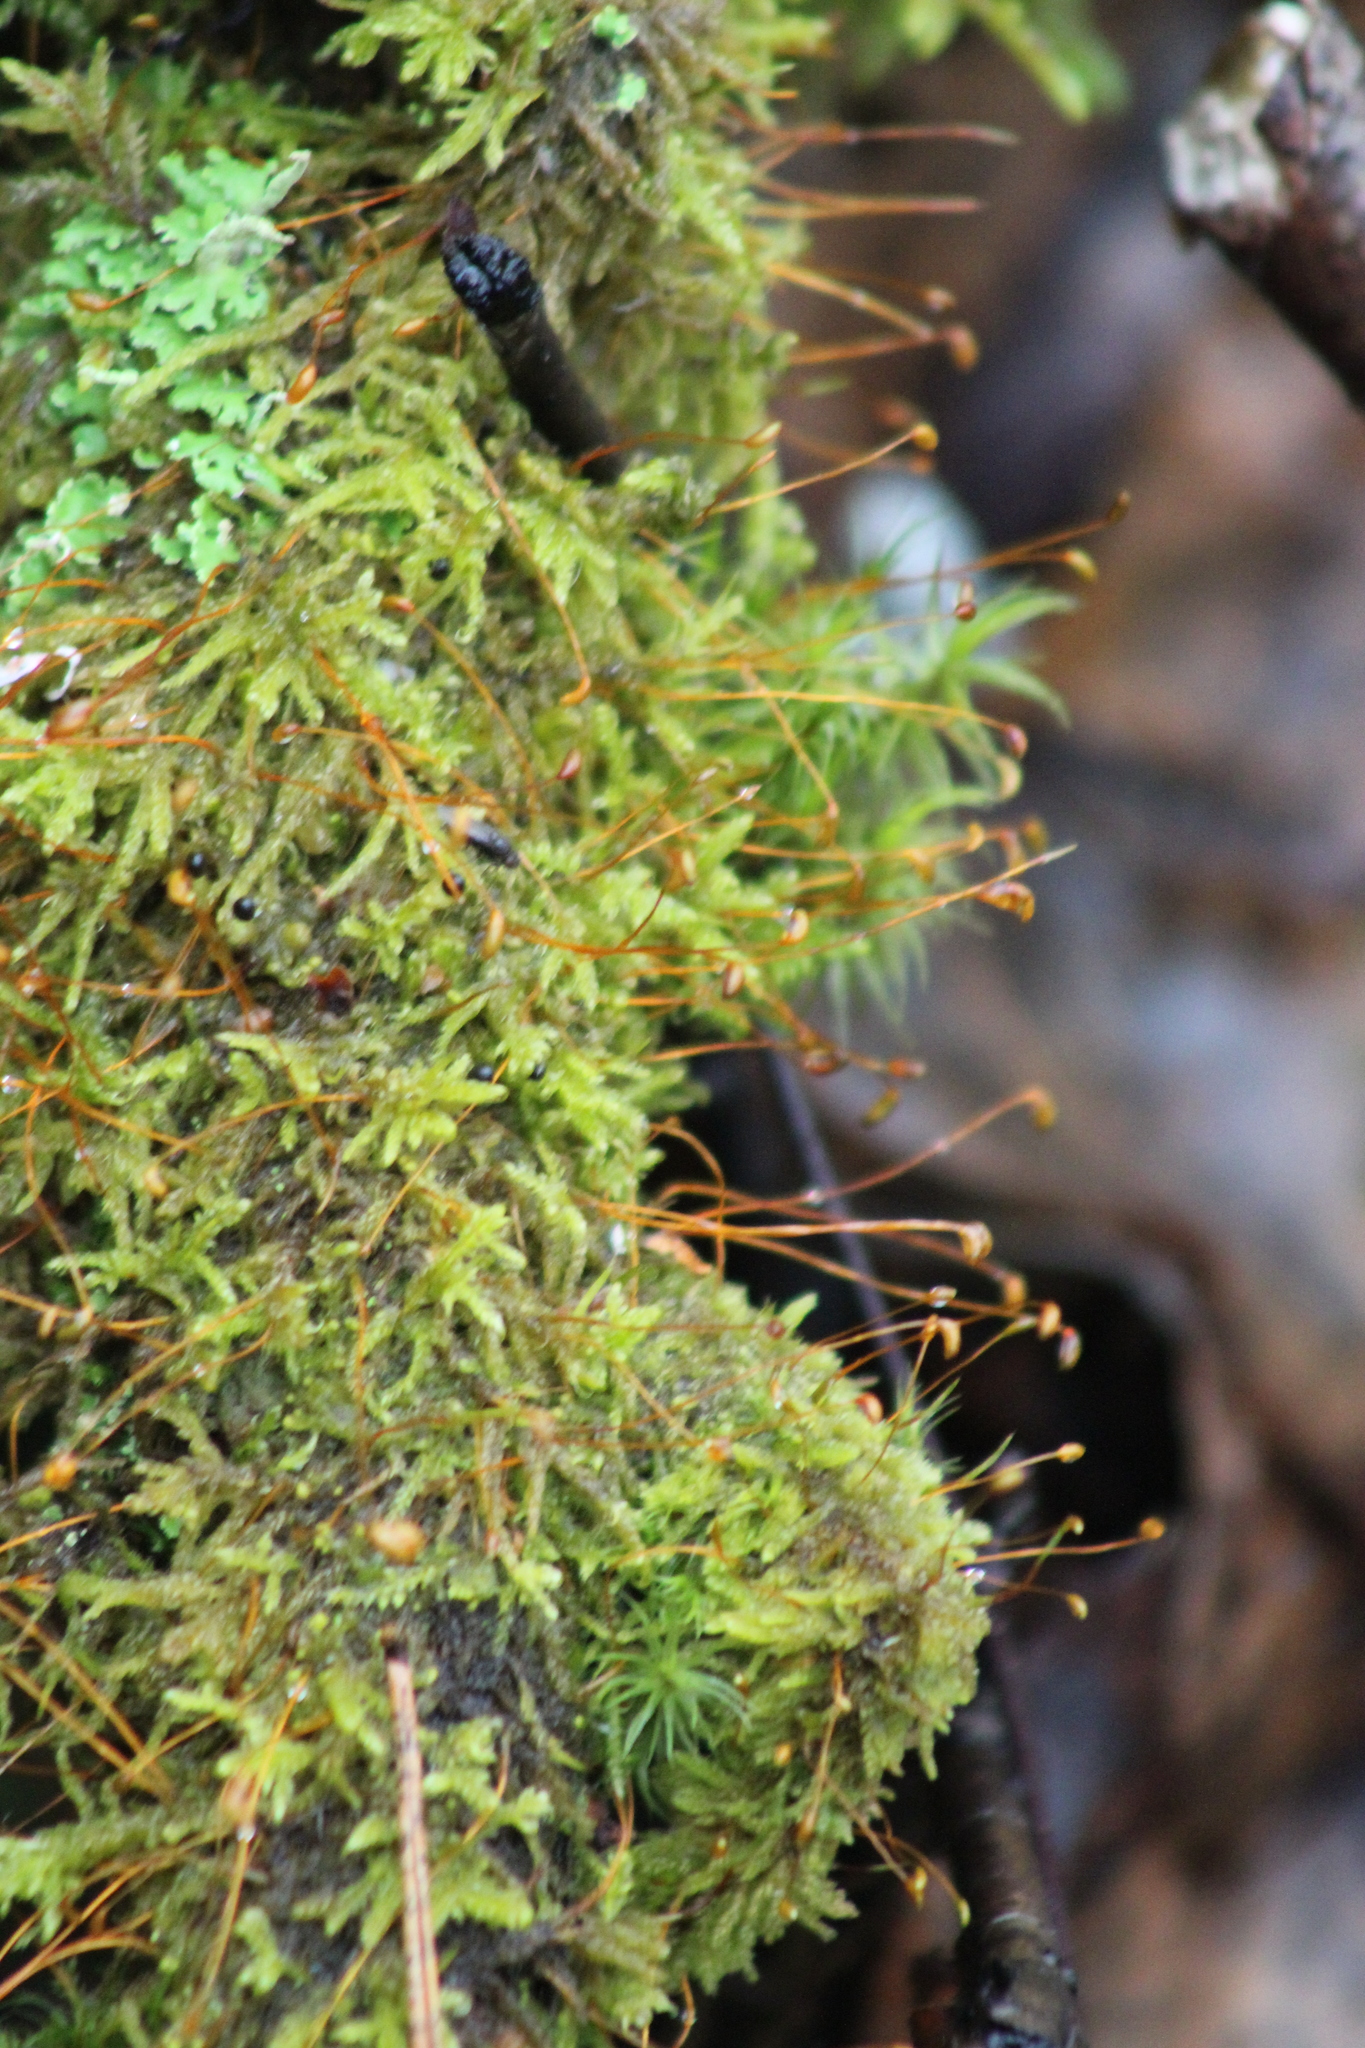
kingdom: Plantae
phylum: Bryophyta
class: Bryopsida
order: Hypnales
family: Hylocomiaceae
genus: Pleurozium
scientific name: Pleurozium schreberi
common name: Red-stemmed feather moss
